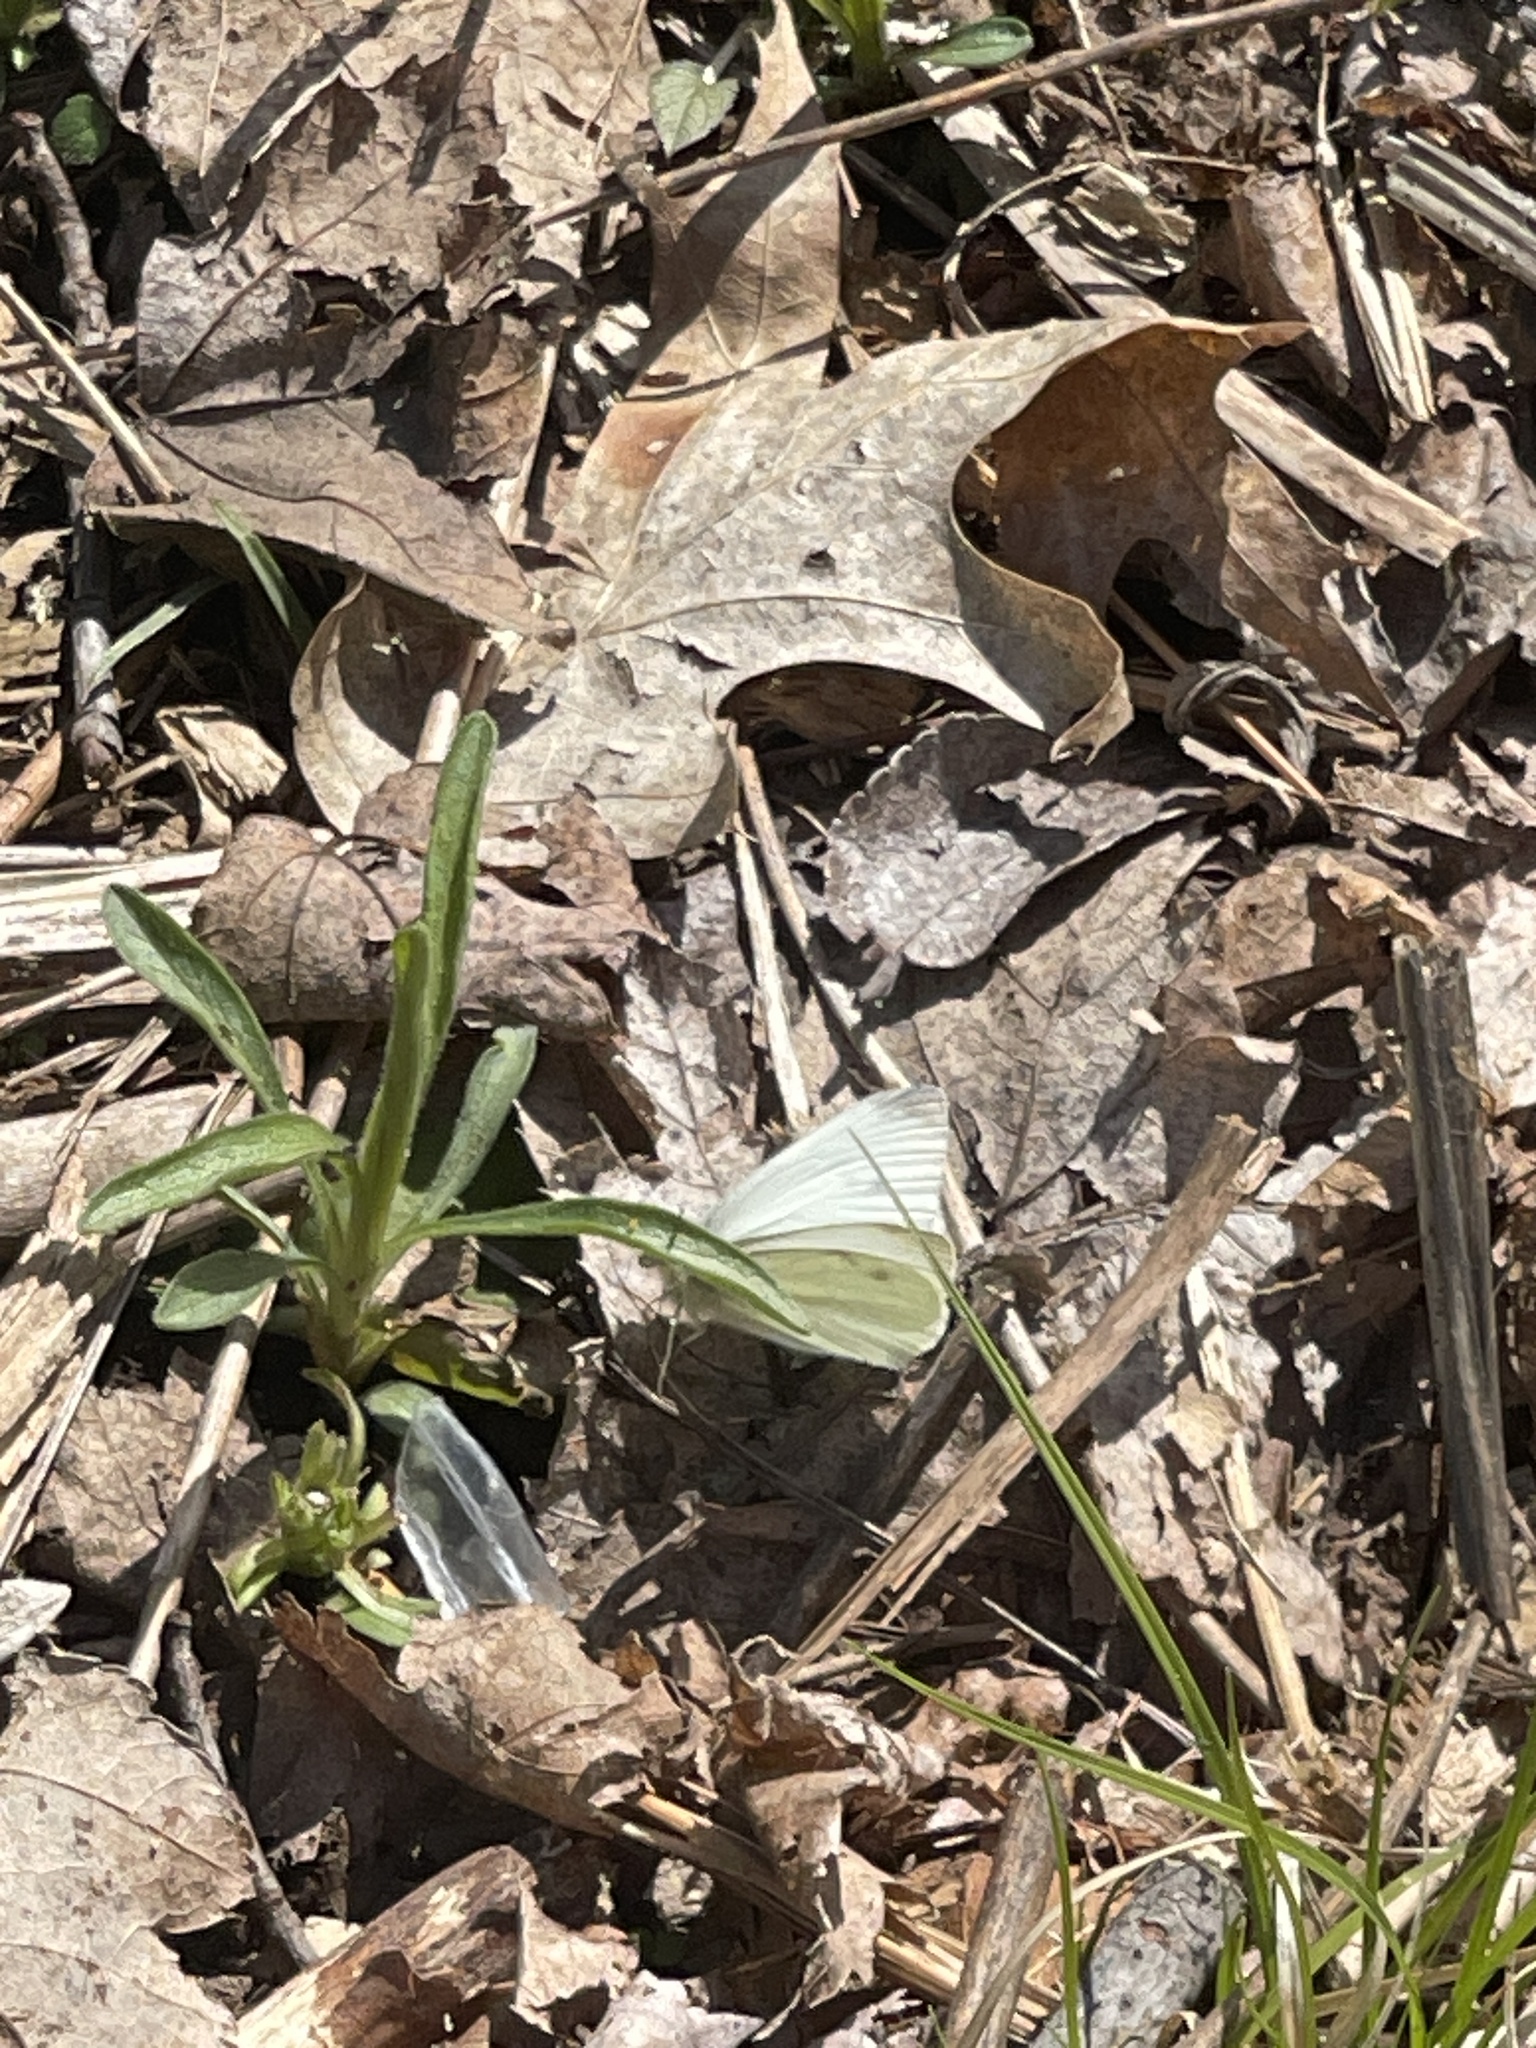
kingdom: Animalia
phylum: Arthropoda
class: Insecta
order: Lepidoptera
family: Pieridae
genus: Pieris
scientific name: Pieris rapae
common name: Small white
